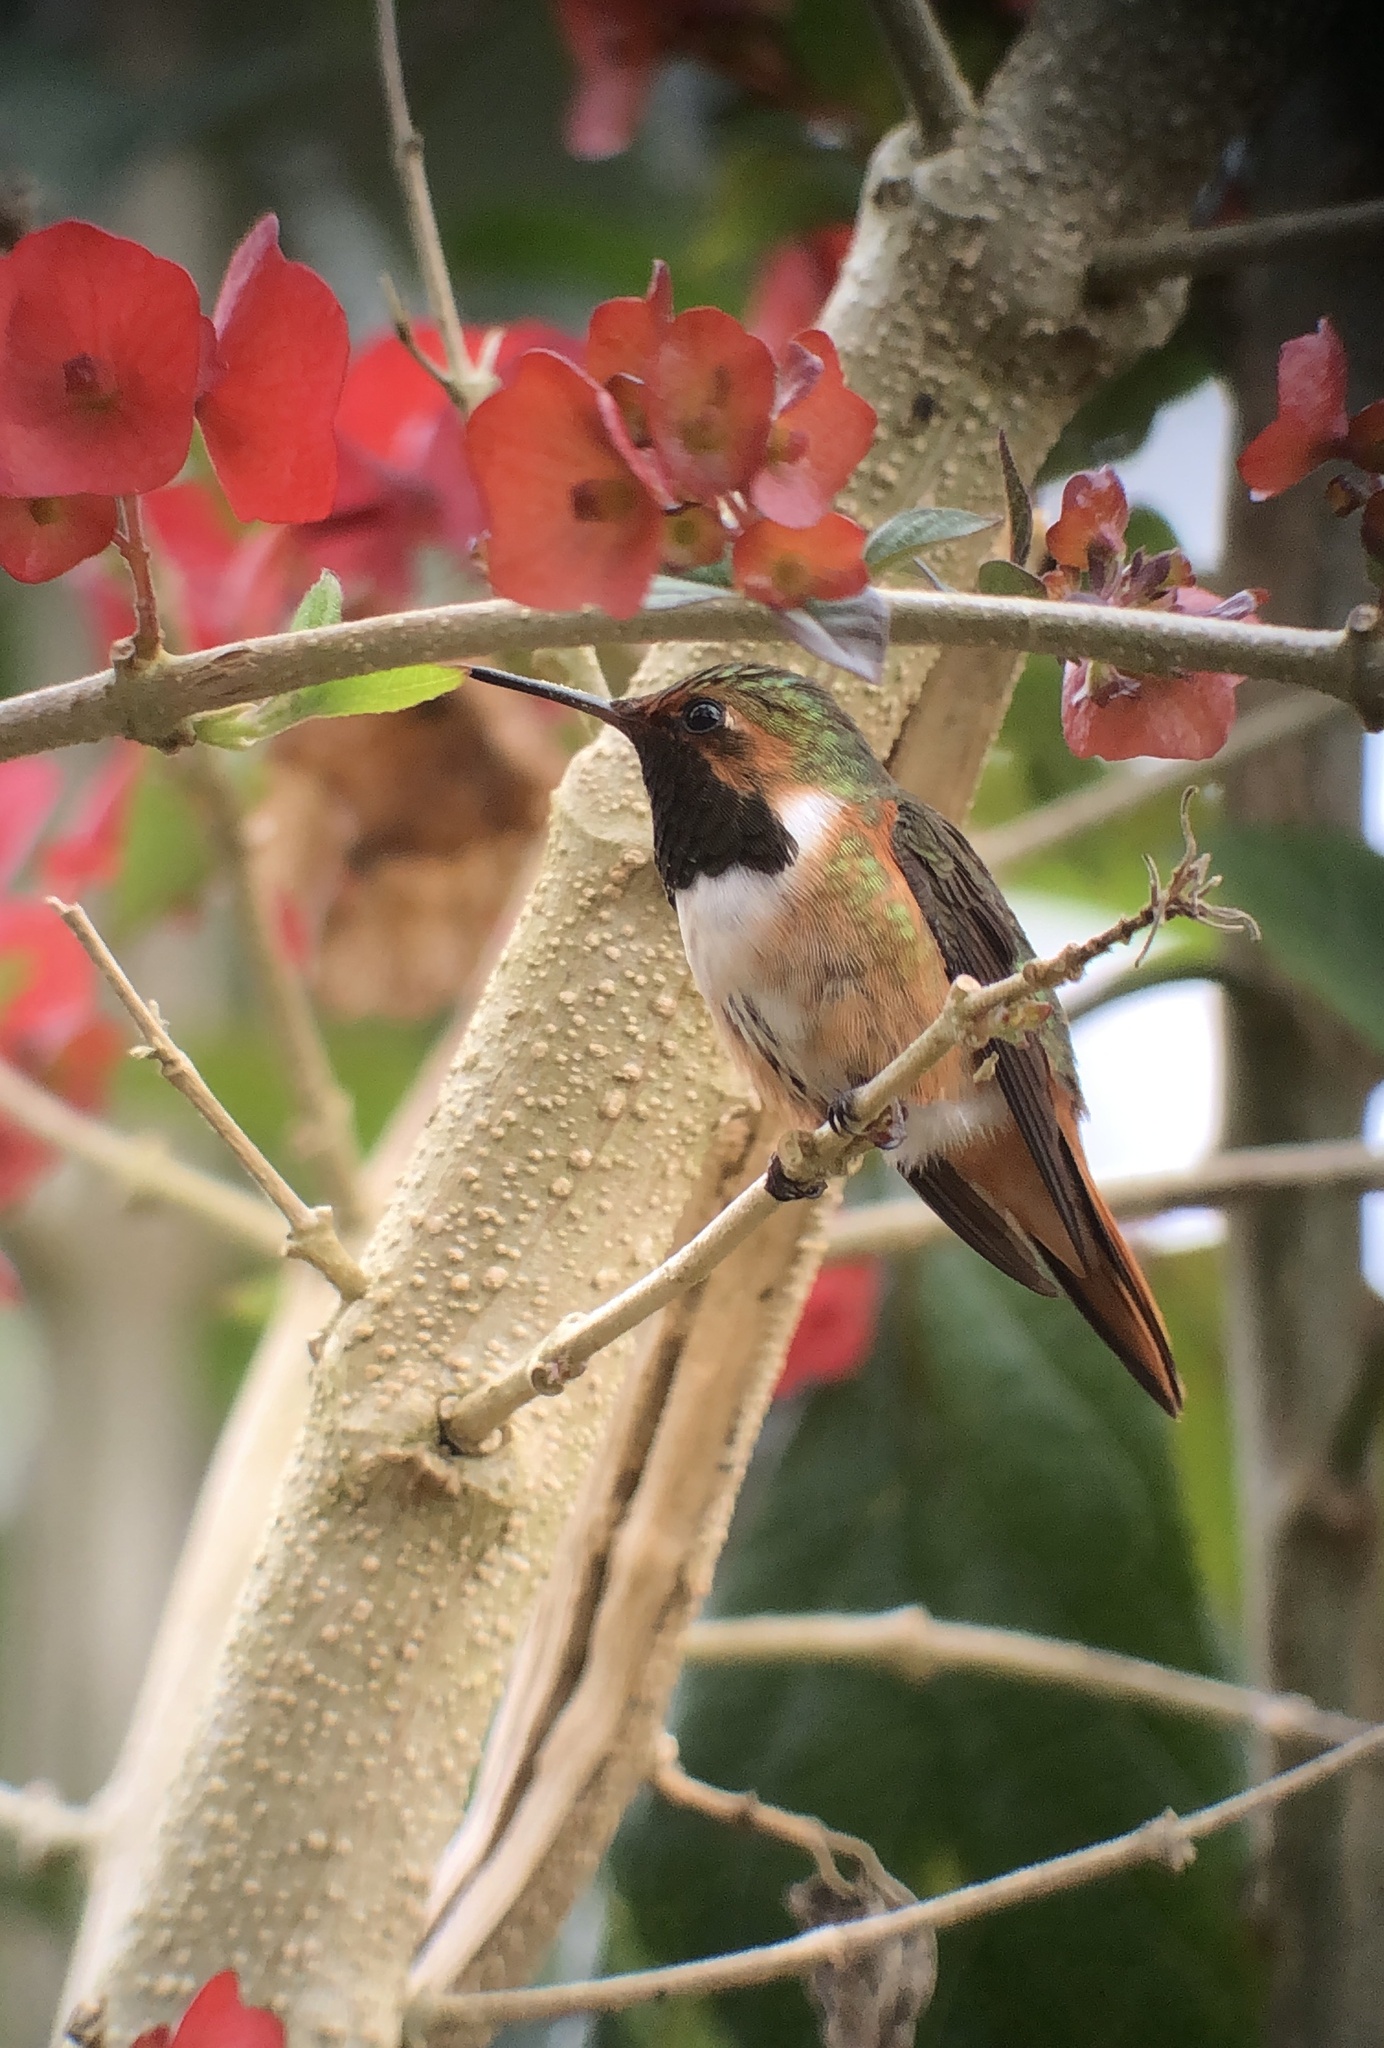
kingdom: Animalia
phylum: Chordata
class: Aves
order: Apodiformes
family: Trochilidae
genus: Selasphorus
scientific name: Selasphorus scintilla
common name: Scintillant hummingbird
